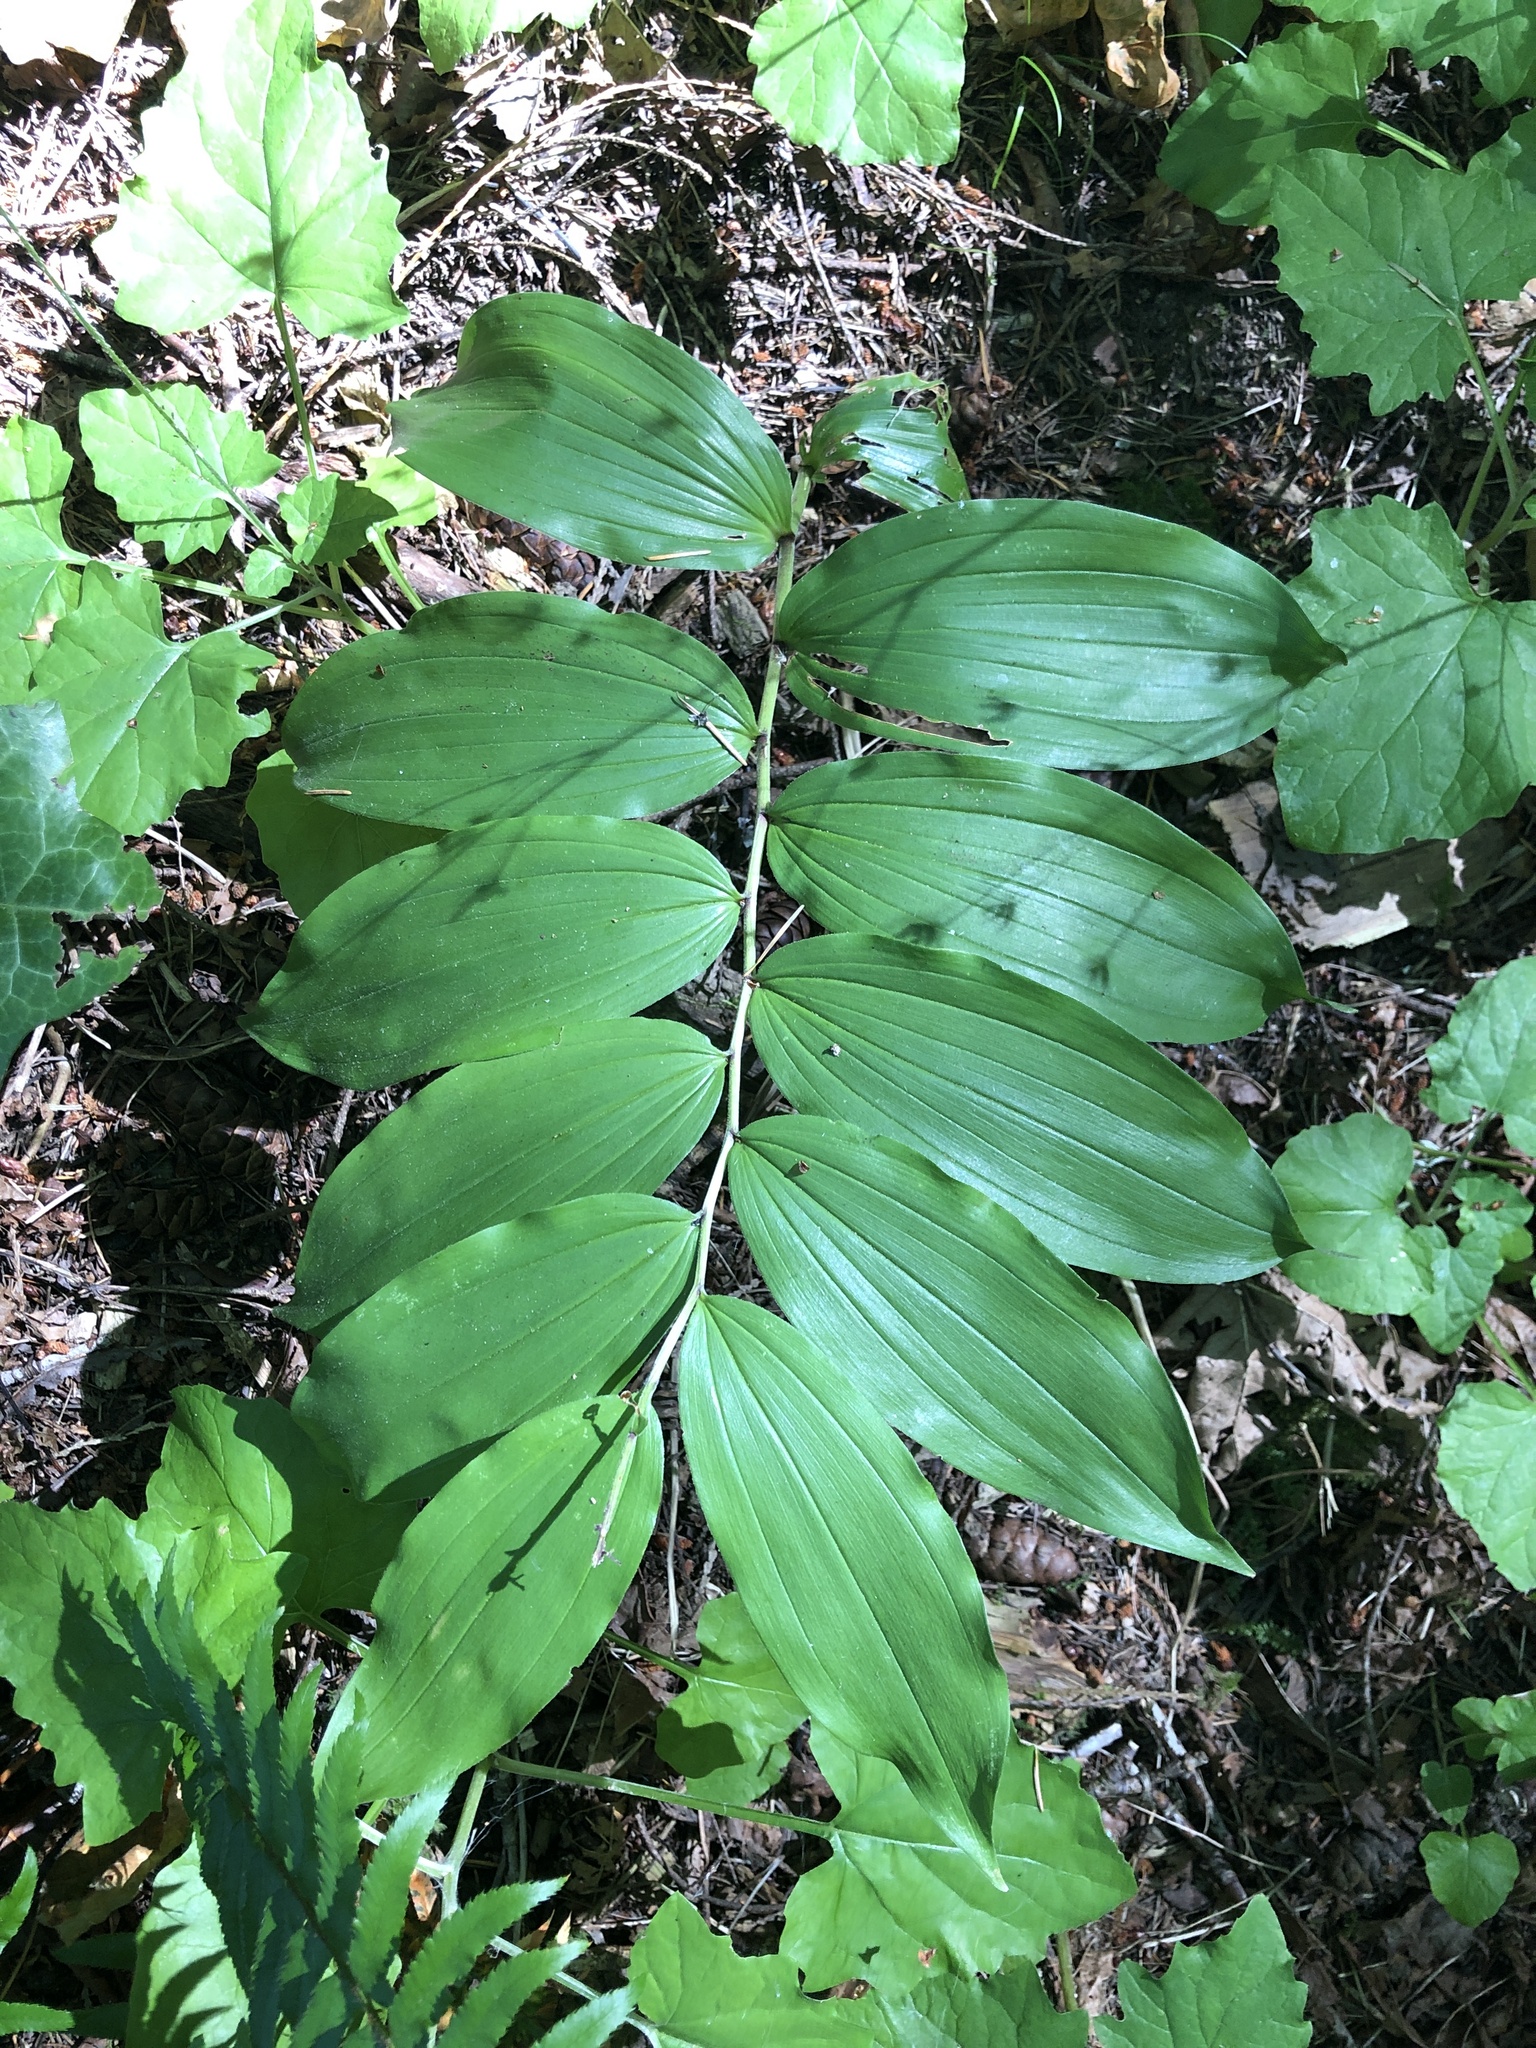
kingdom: Plantae
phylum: Tracheophyta
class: Liliopsida
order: Asparagales
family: Asparagaceae
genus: Maianthemum
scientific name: Maianthemum racemosum
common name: False spikenard
